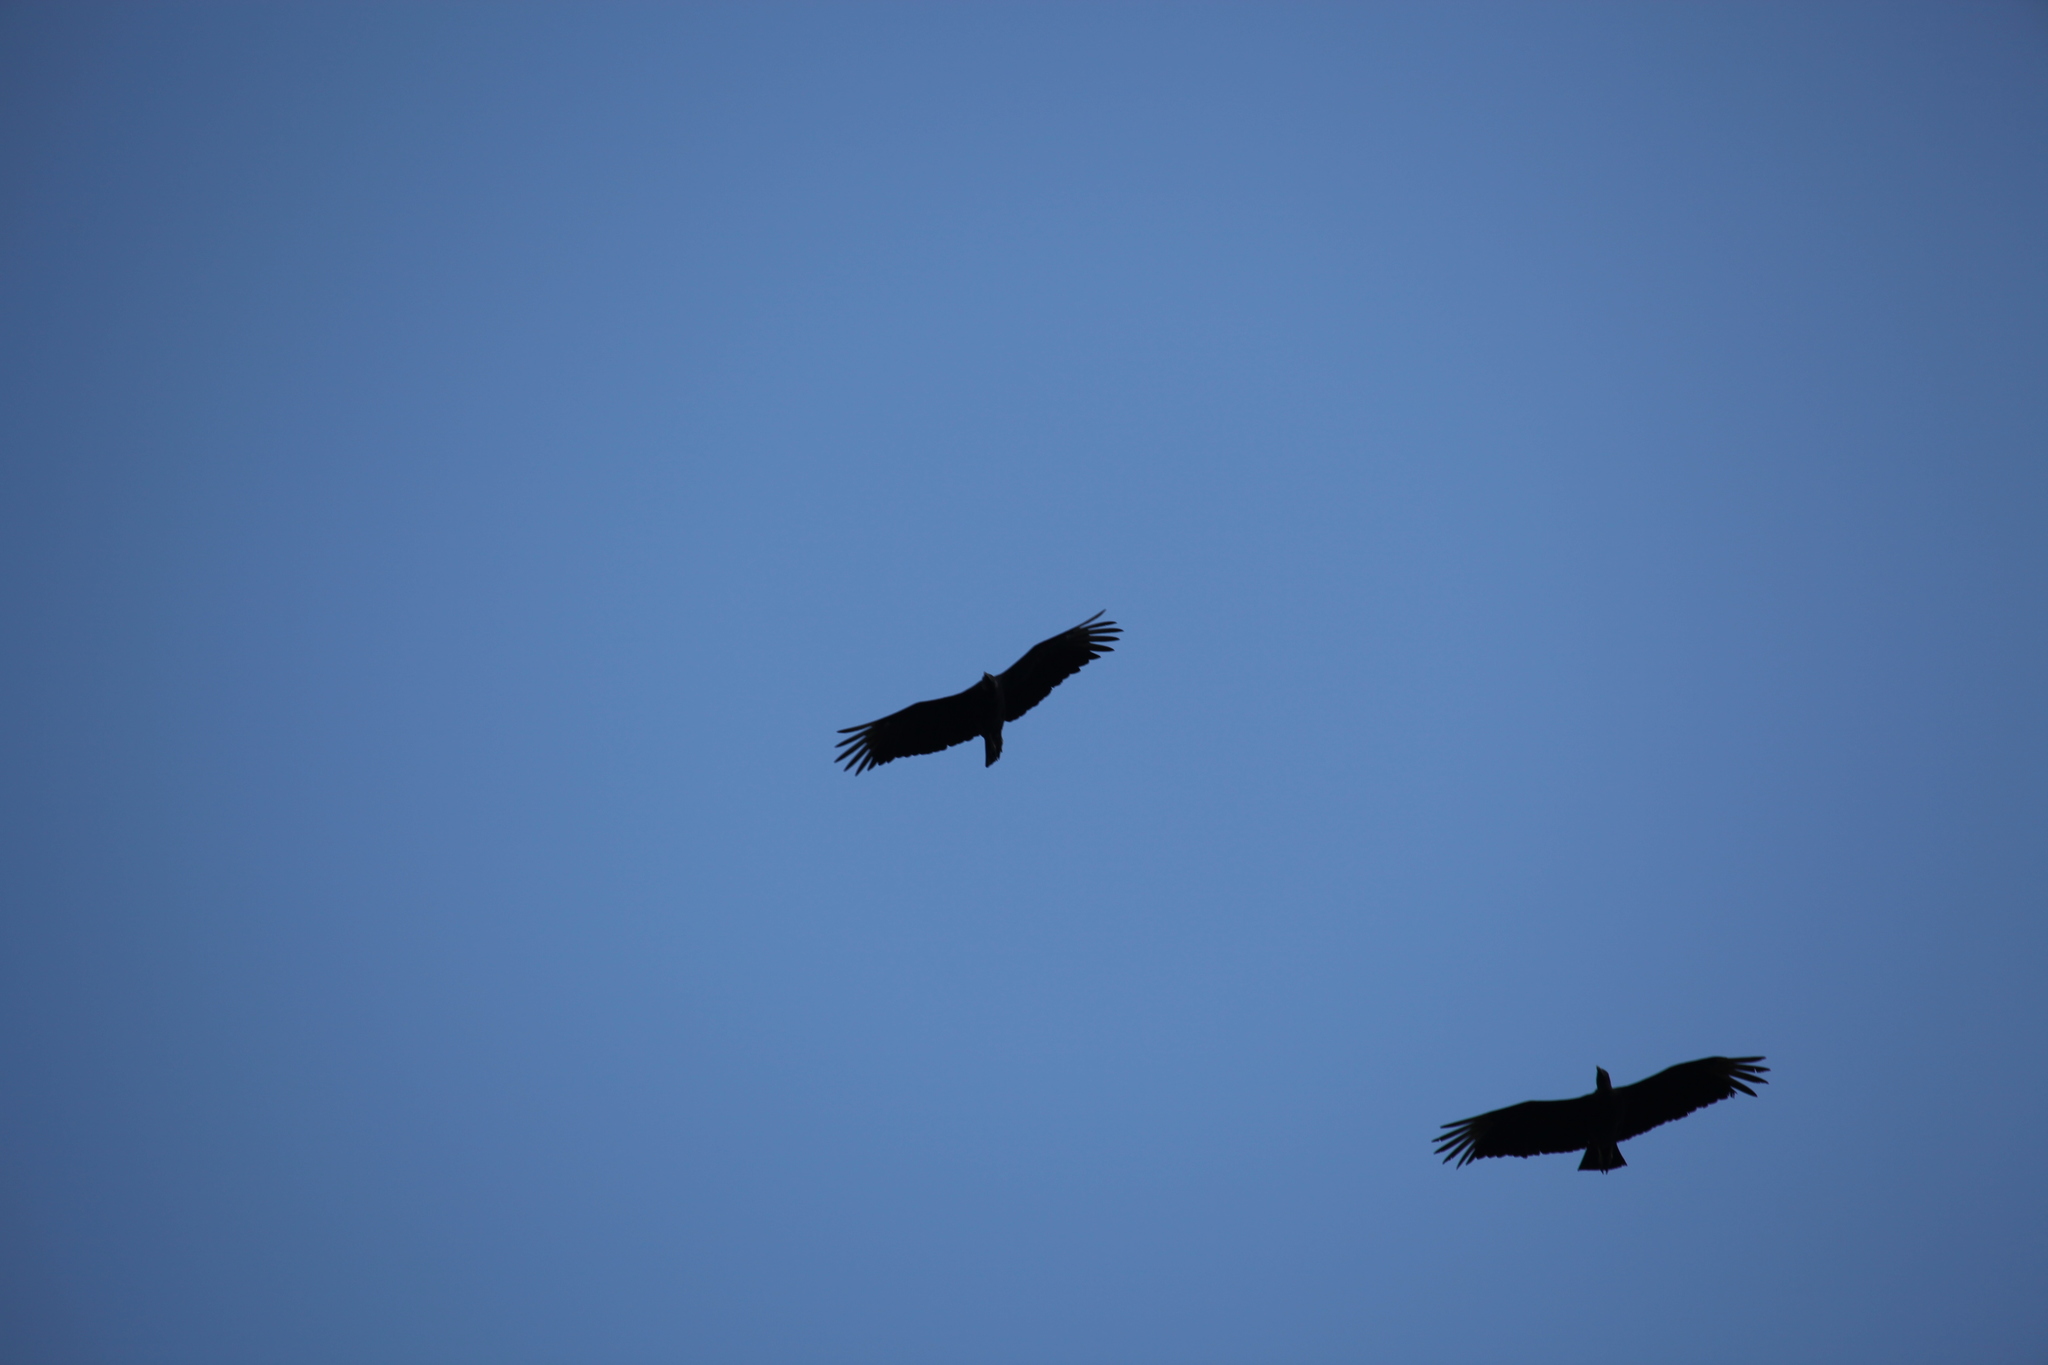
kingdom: Animalia
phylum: Chordata
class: Aves
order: Accipitriformes
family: Cathartidae
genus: Coragyps
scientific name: Coragyps atratus
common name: Black vulture
